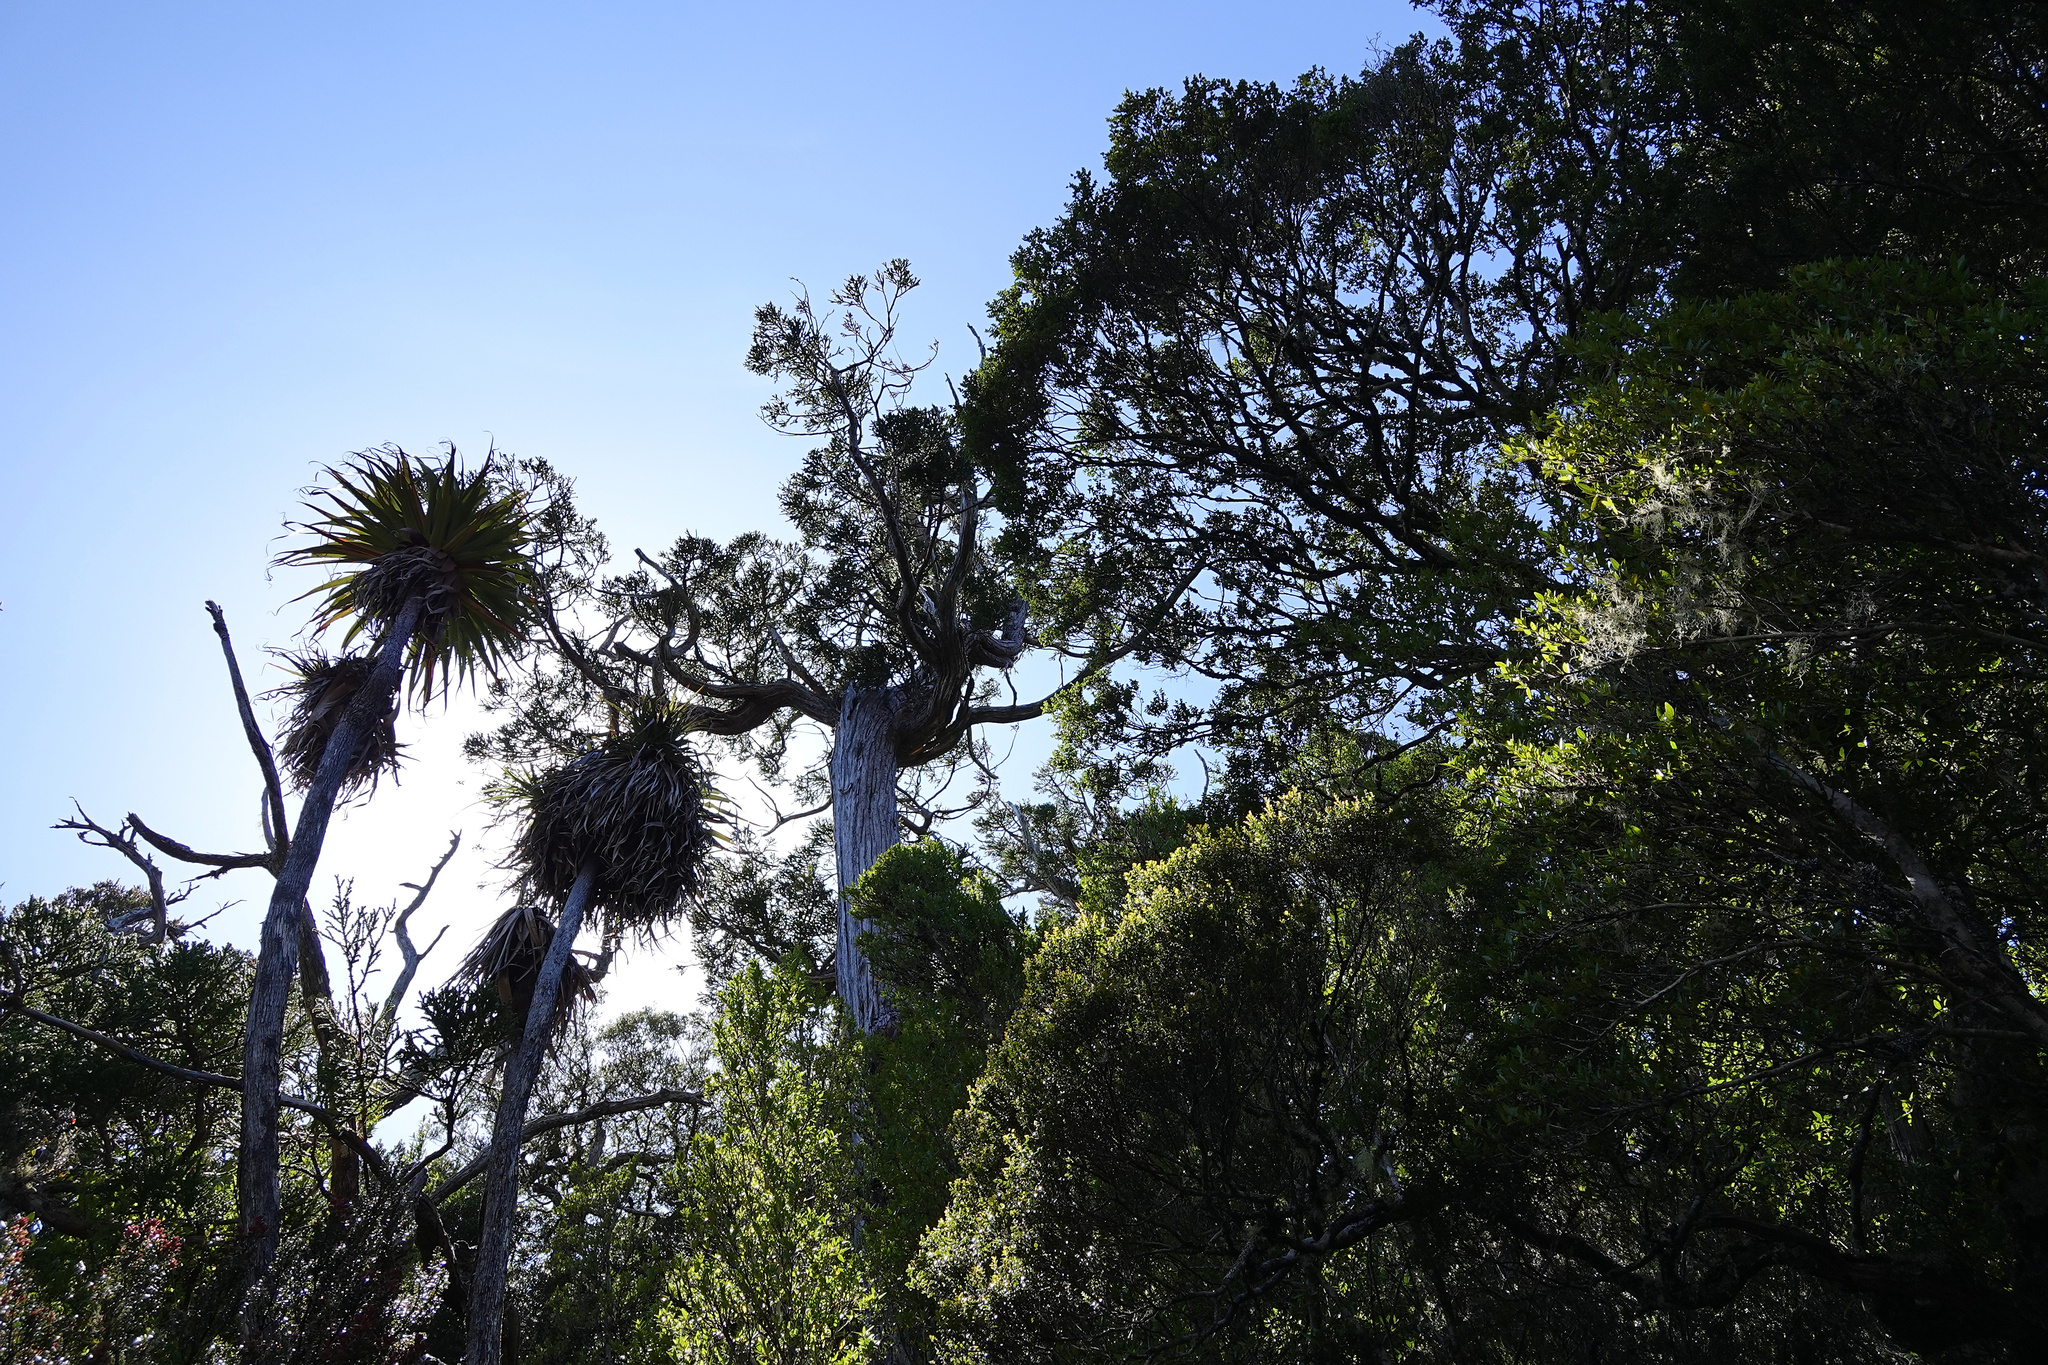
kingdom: Plantae
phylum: Tracheophyta
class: Magnoliopsida
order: Ericales
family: Ericaceae
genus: Dracophyllum
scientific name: Dracophyllum pandanifolium
